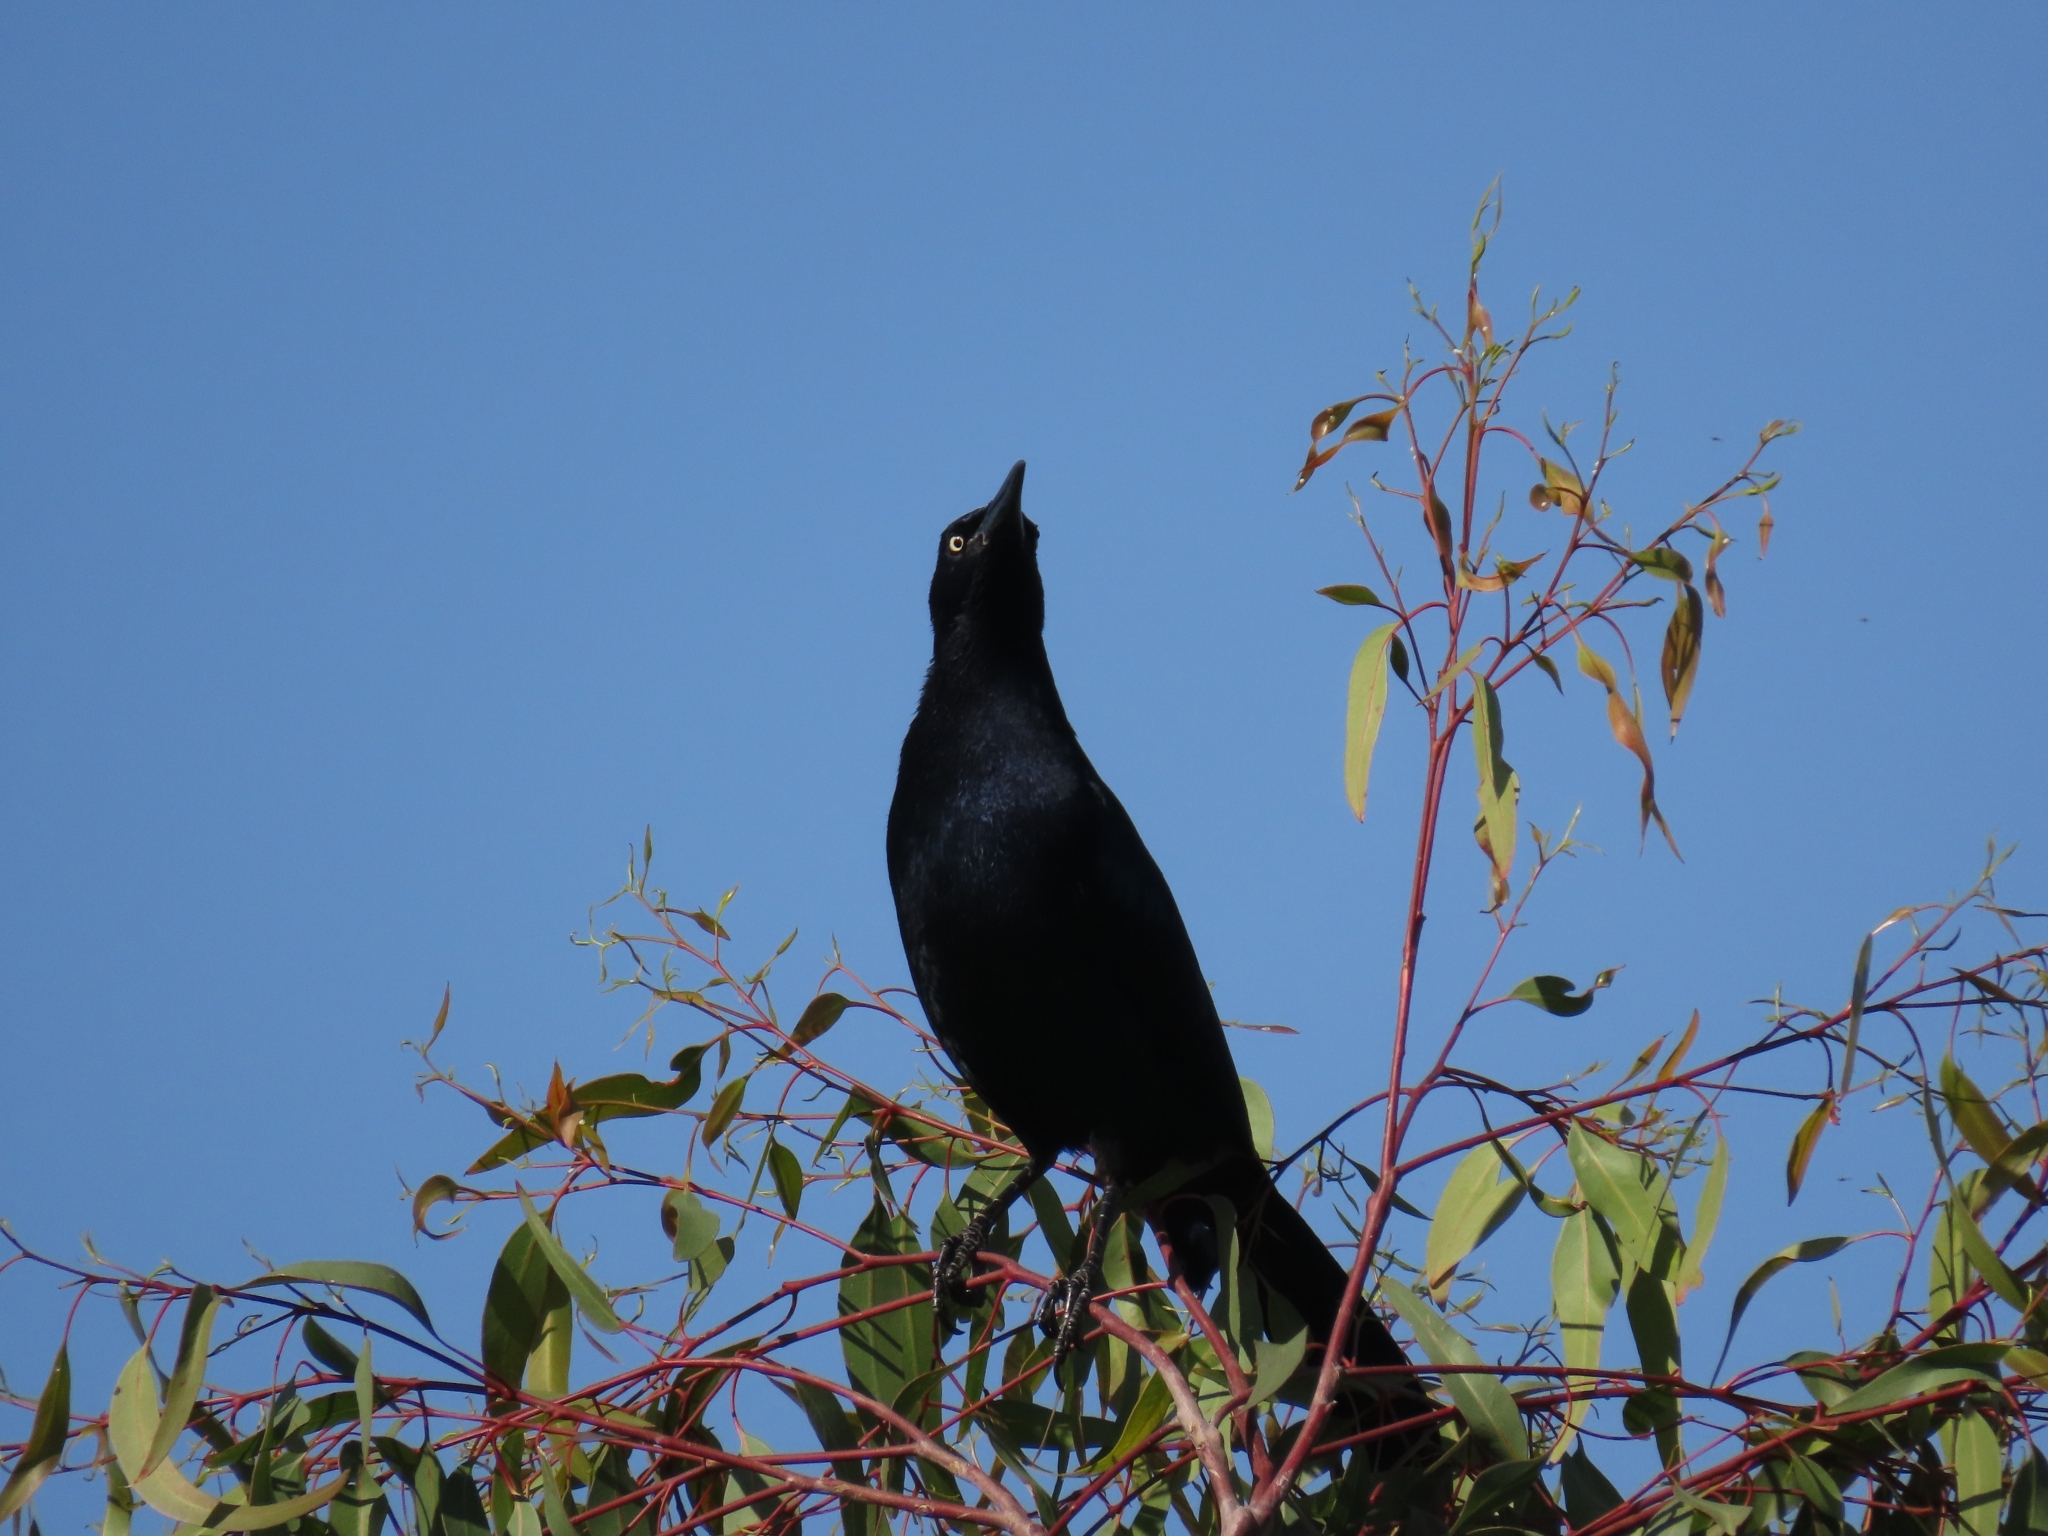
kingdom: Animalia
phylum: Chordata
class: Aves
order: Passeriformes
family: Icteridae
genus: Quiscalus
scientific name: Quiscalus mexicanus
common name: Great-tailed grackle
